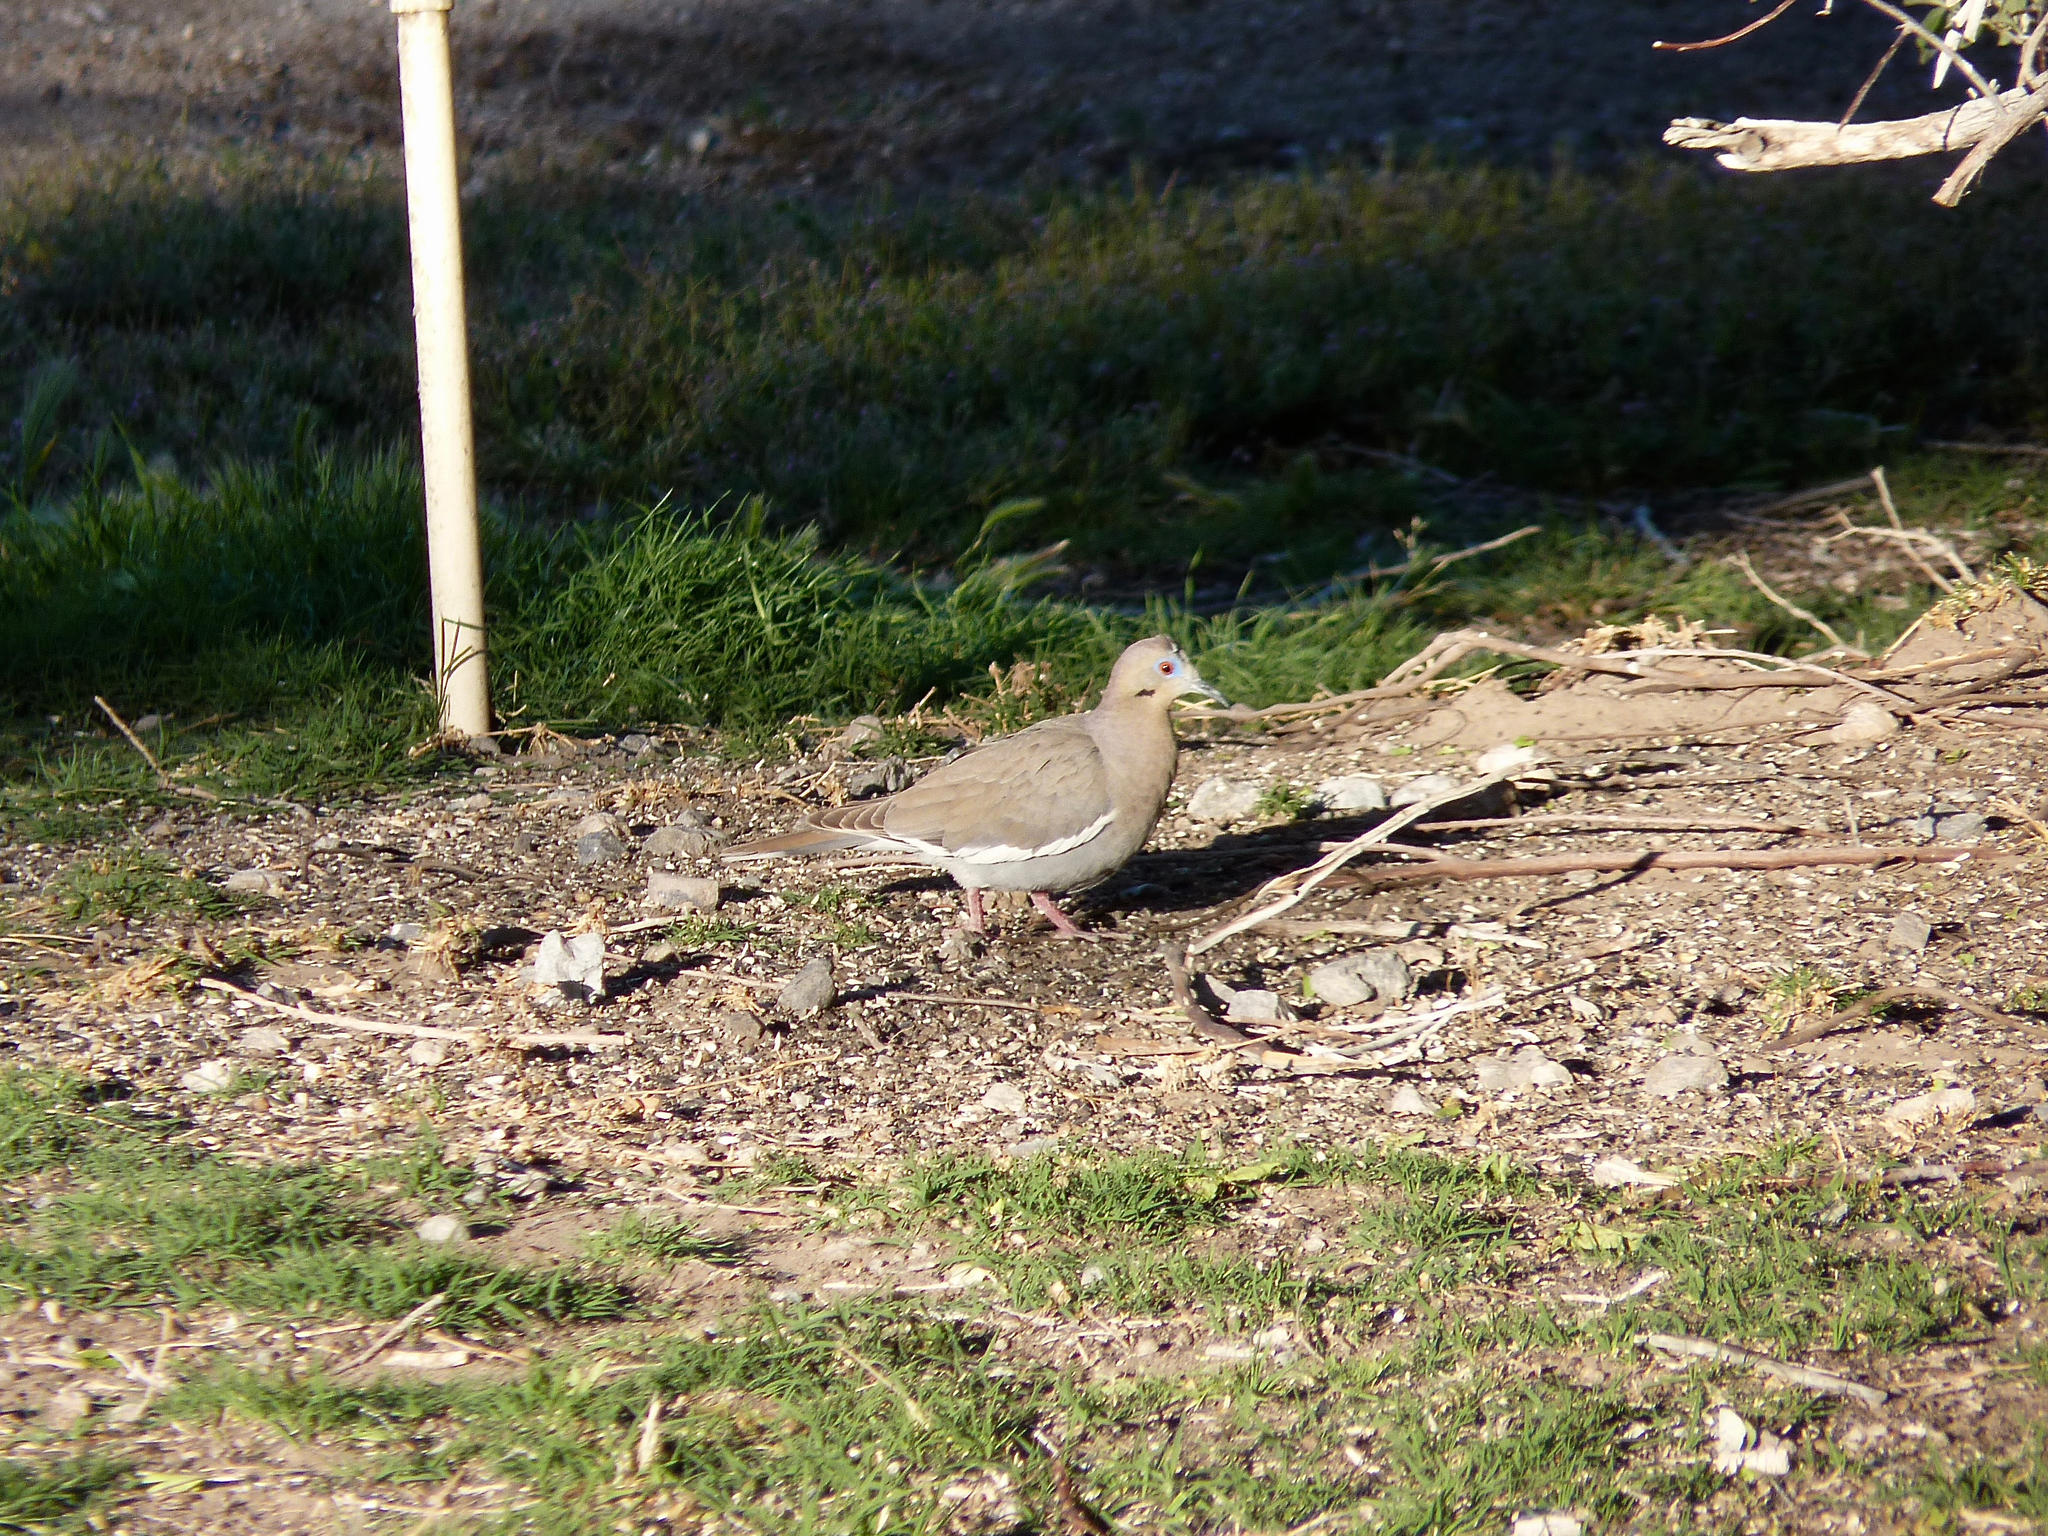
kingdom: Animalia
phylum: Chordata
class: Aves
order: Columbiformes
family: Columbidae
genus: Zenaida
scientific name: Zenaida asiatica
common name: White-winged dove
